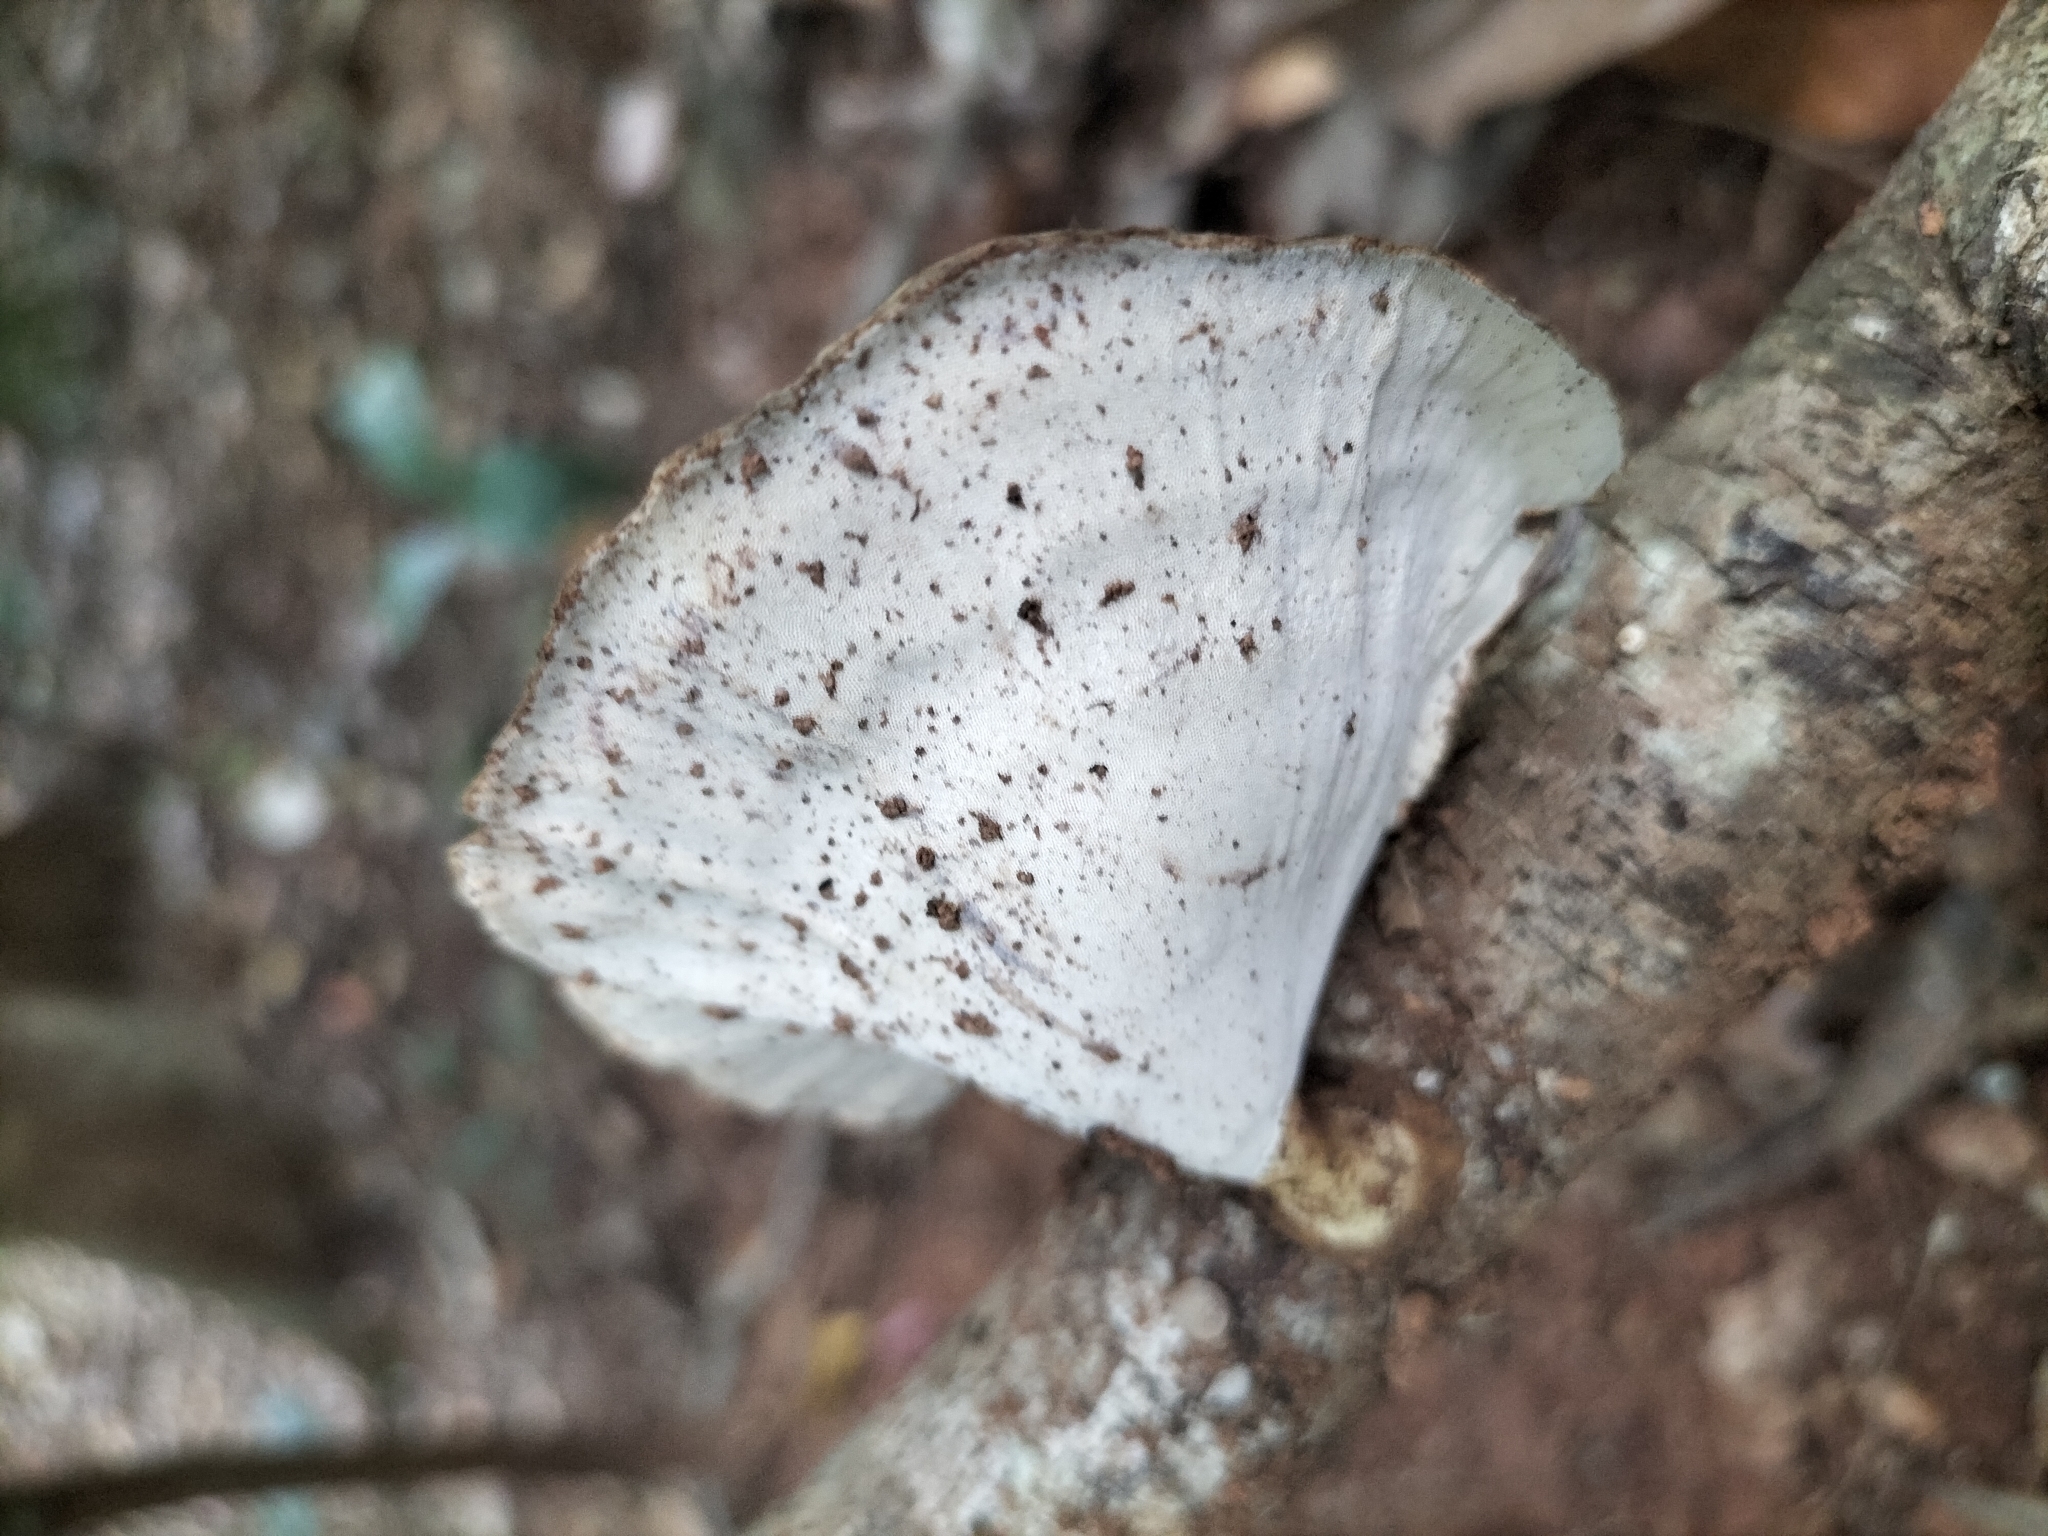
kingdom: Fungi
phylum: Basidiomycota
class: Agaricomycetes
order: Polyporales
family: Polyporaceae
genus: Microporus
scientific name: Microporus xanthopus
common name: Yellow-stemmed micropore
